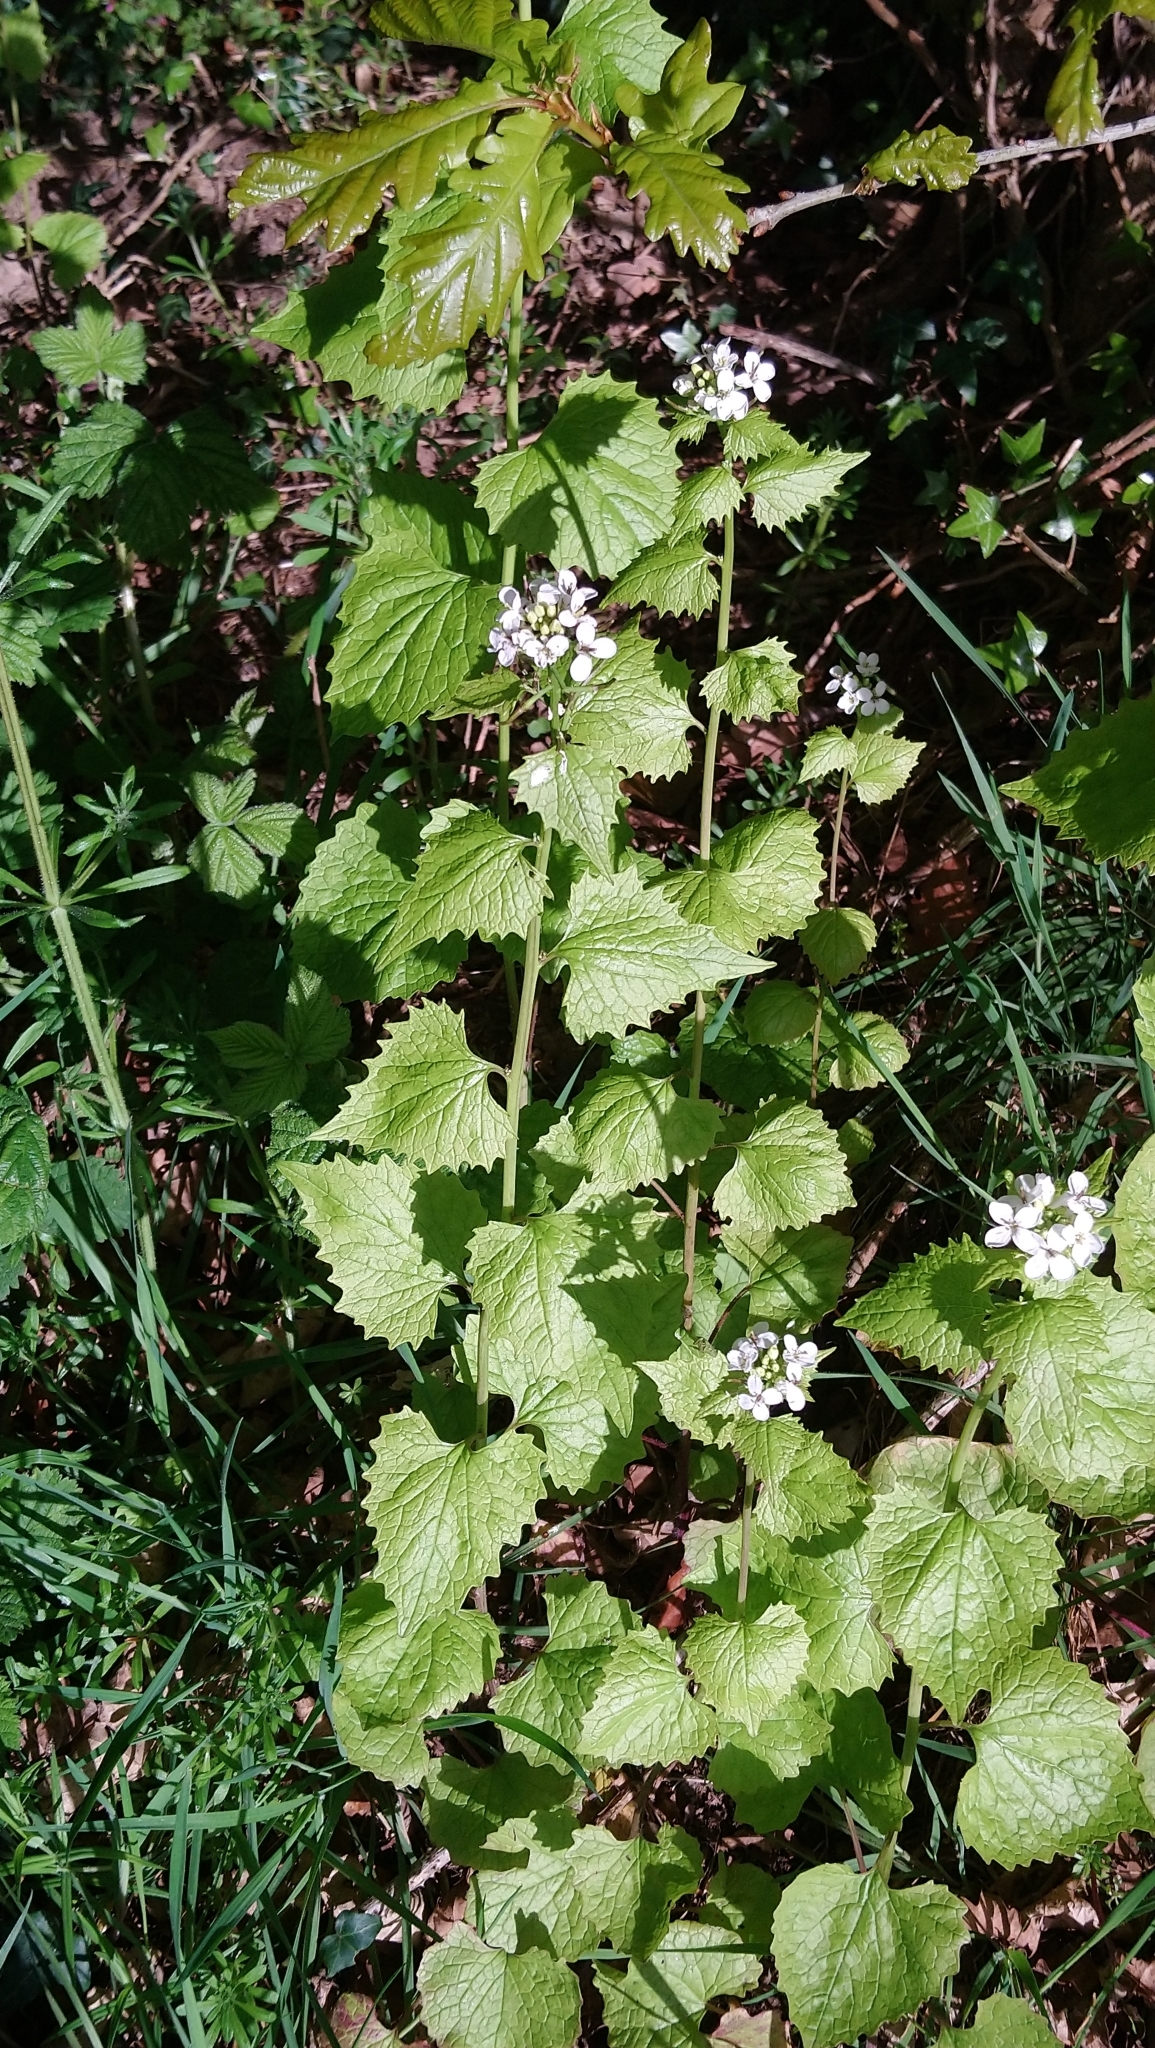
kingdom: Plantae
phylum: Tracheophyta
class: Magnoliopsida
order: Brassicales
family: Brassicaceae
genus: Alliaria
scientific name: Alliaria petiolata
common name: Garlic mustard
